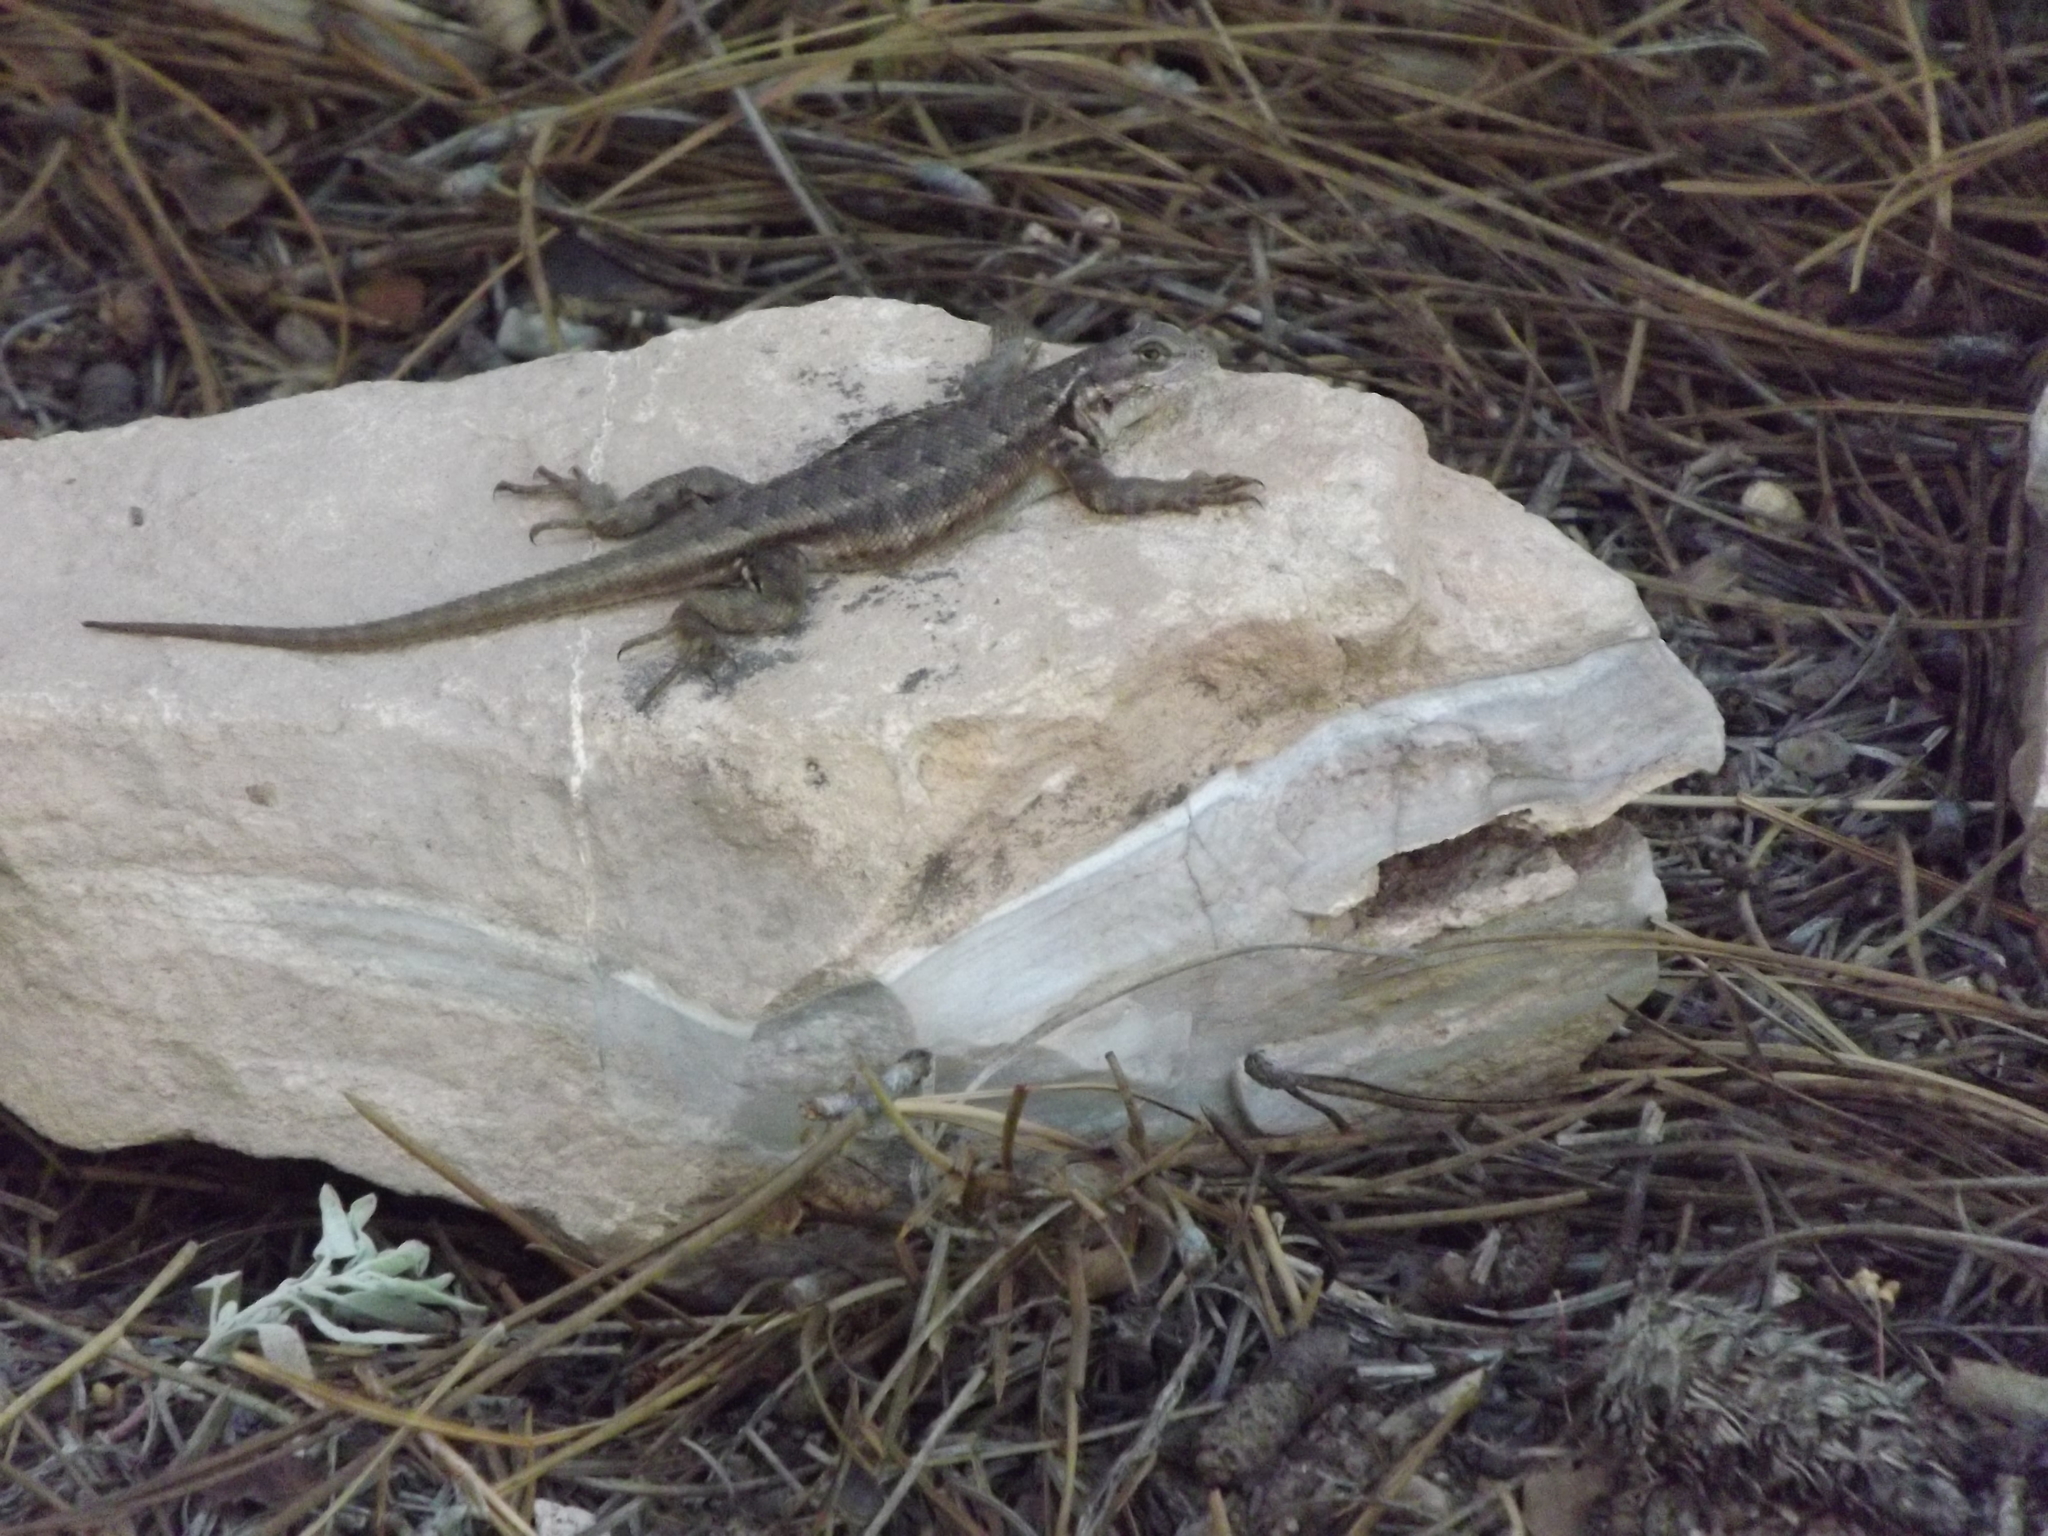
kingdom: Animalia
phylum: Chordata
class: Squamata
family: Phrynosomatidae
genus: Sceloporus
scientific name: Sceloporus graciosus
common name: Sagebrush lizard
